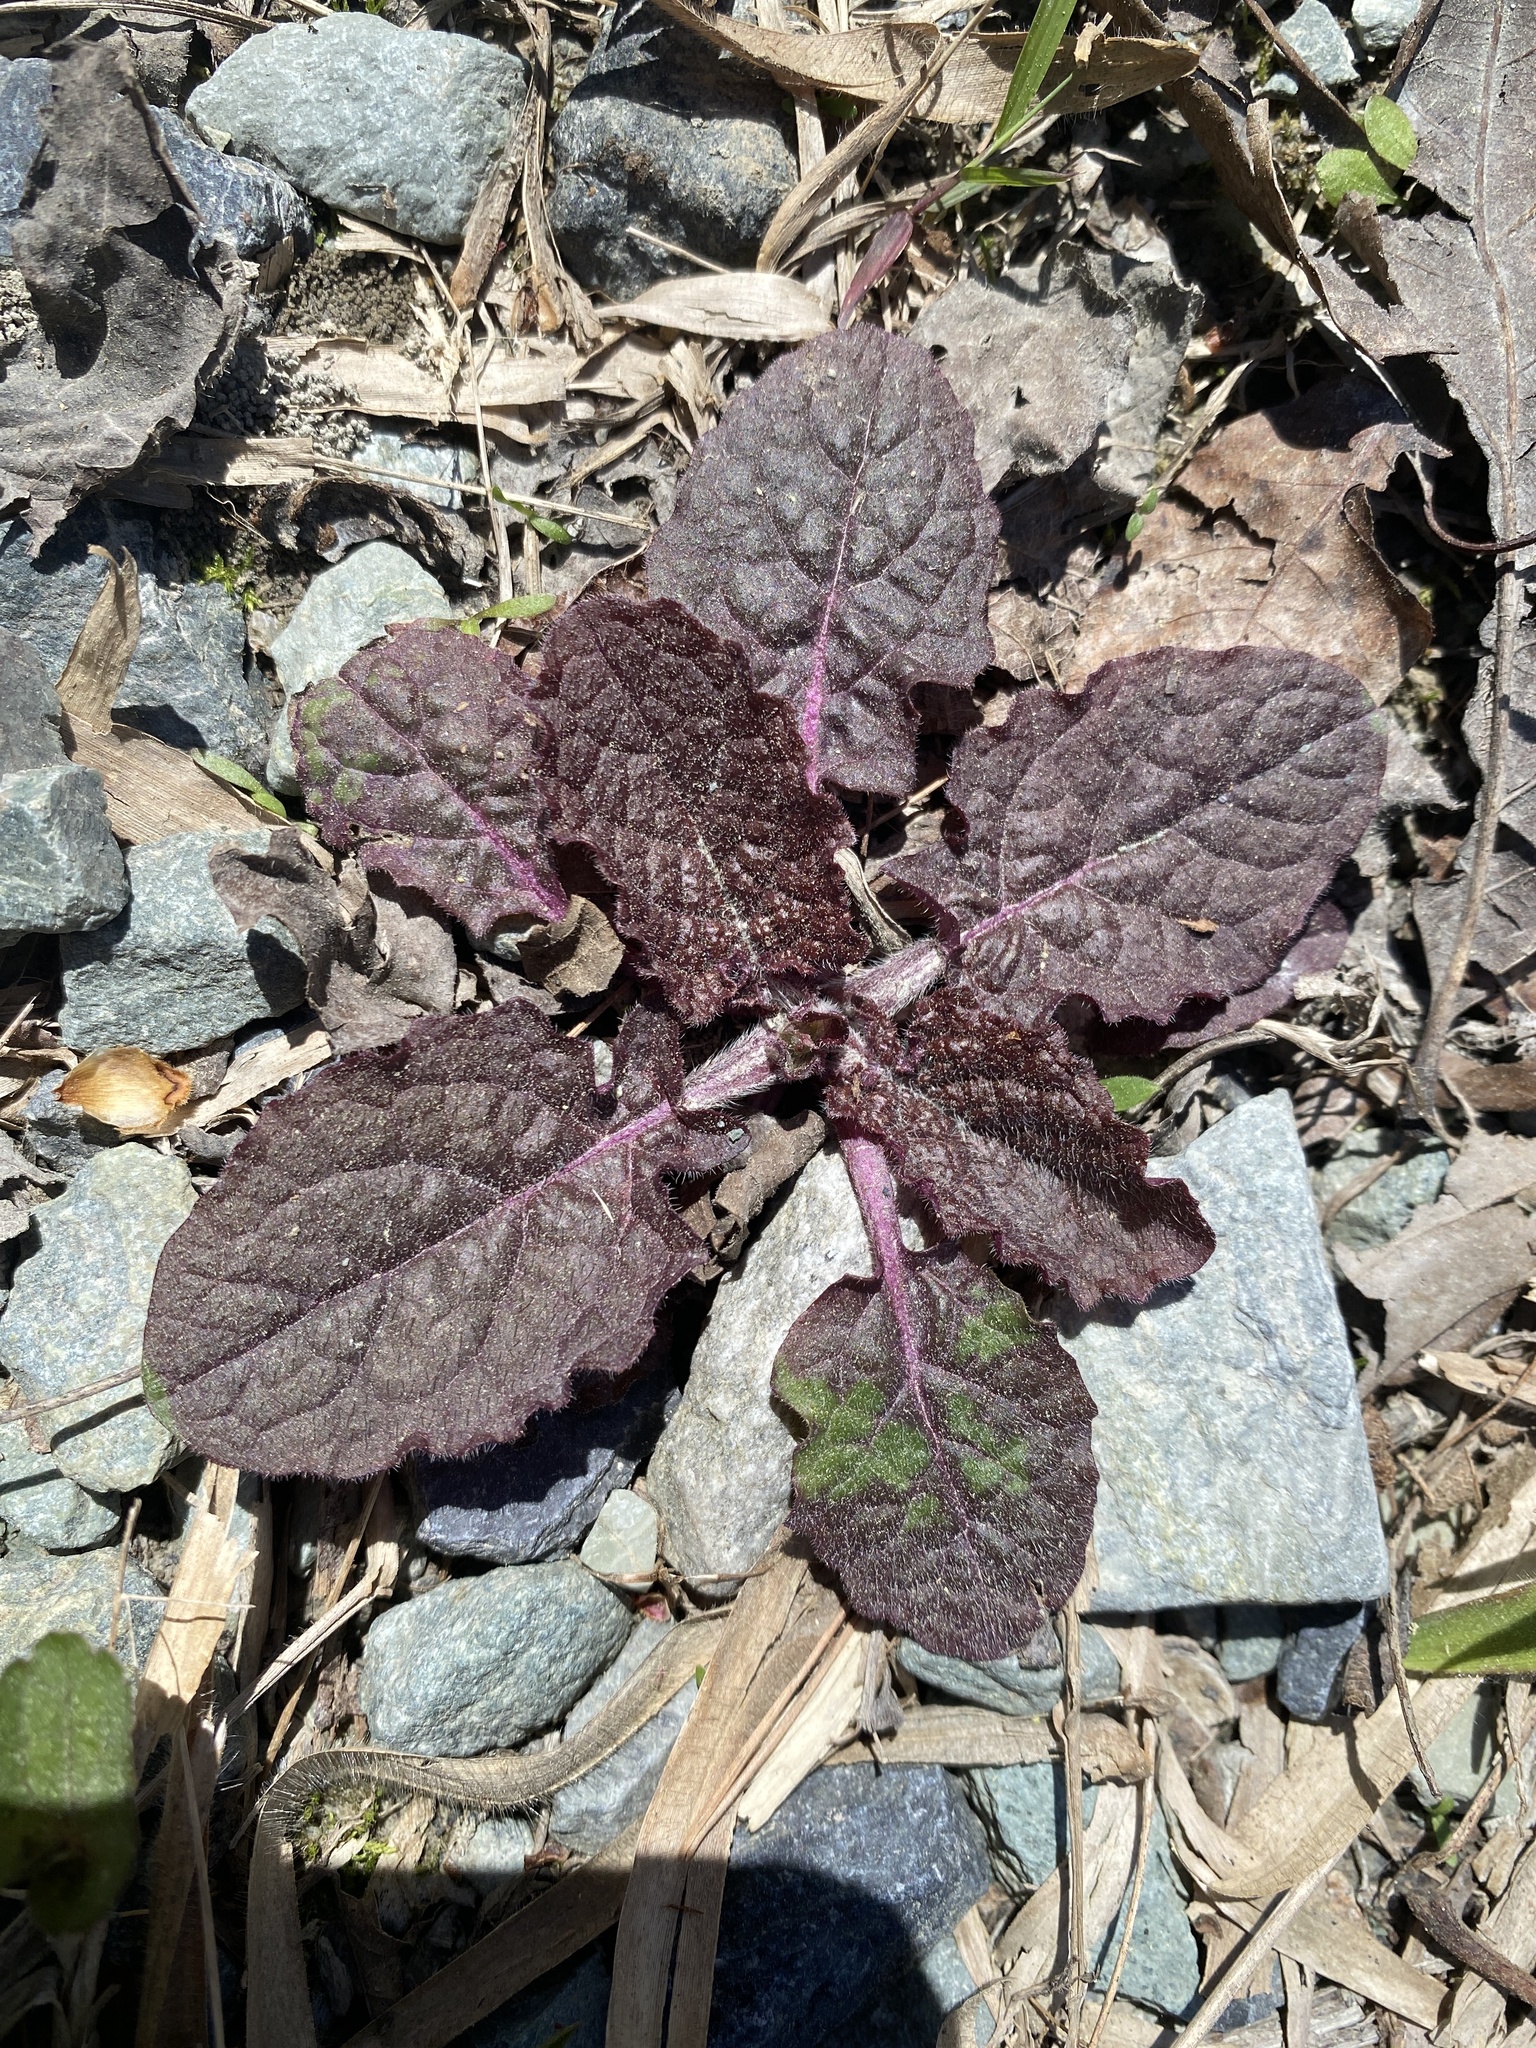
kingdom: Plantae
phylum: Tracheophyta
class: Magnoliopsida
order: Lamiales
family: Lamiaceae
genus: Salvia
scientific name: Salvia lyrata
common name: Cancerweed
